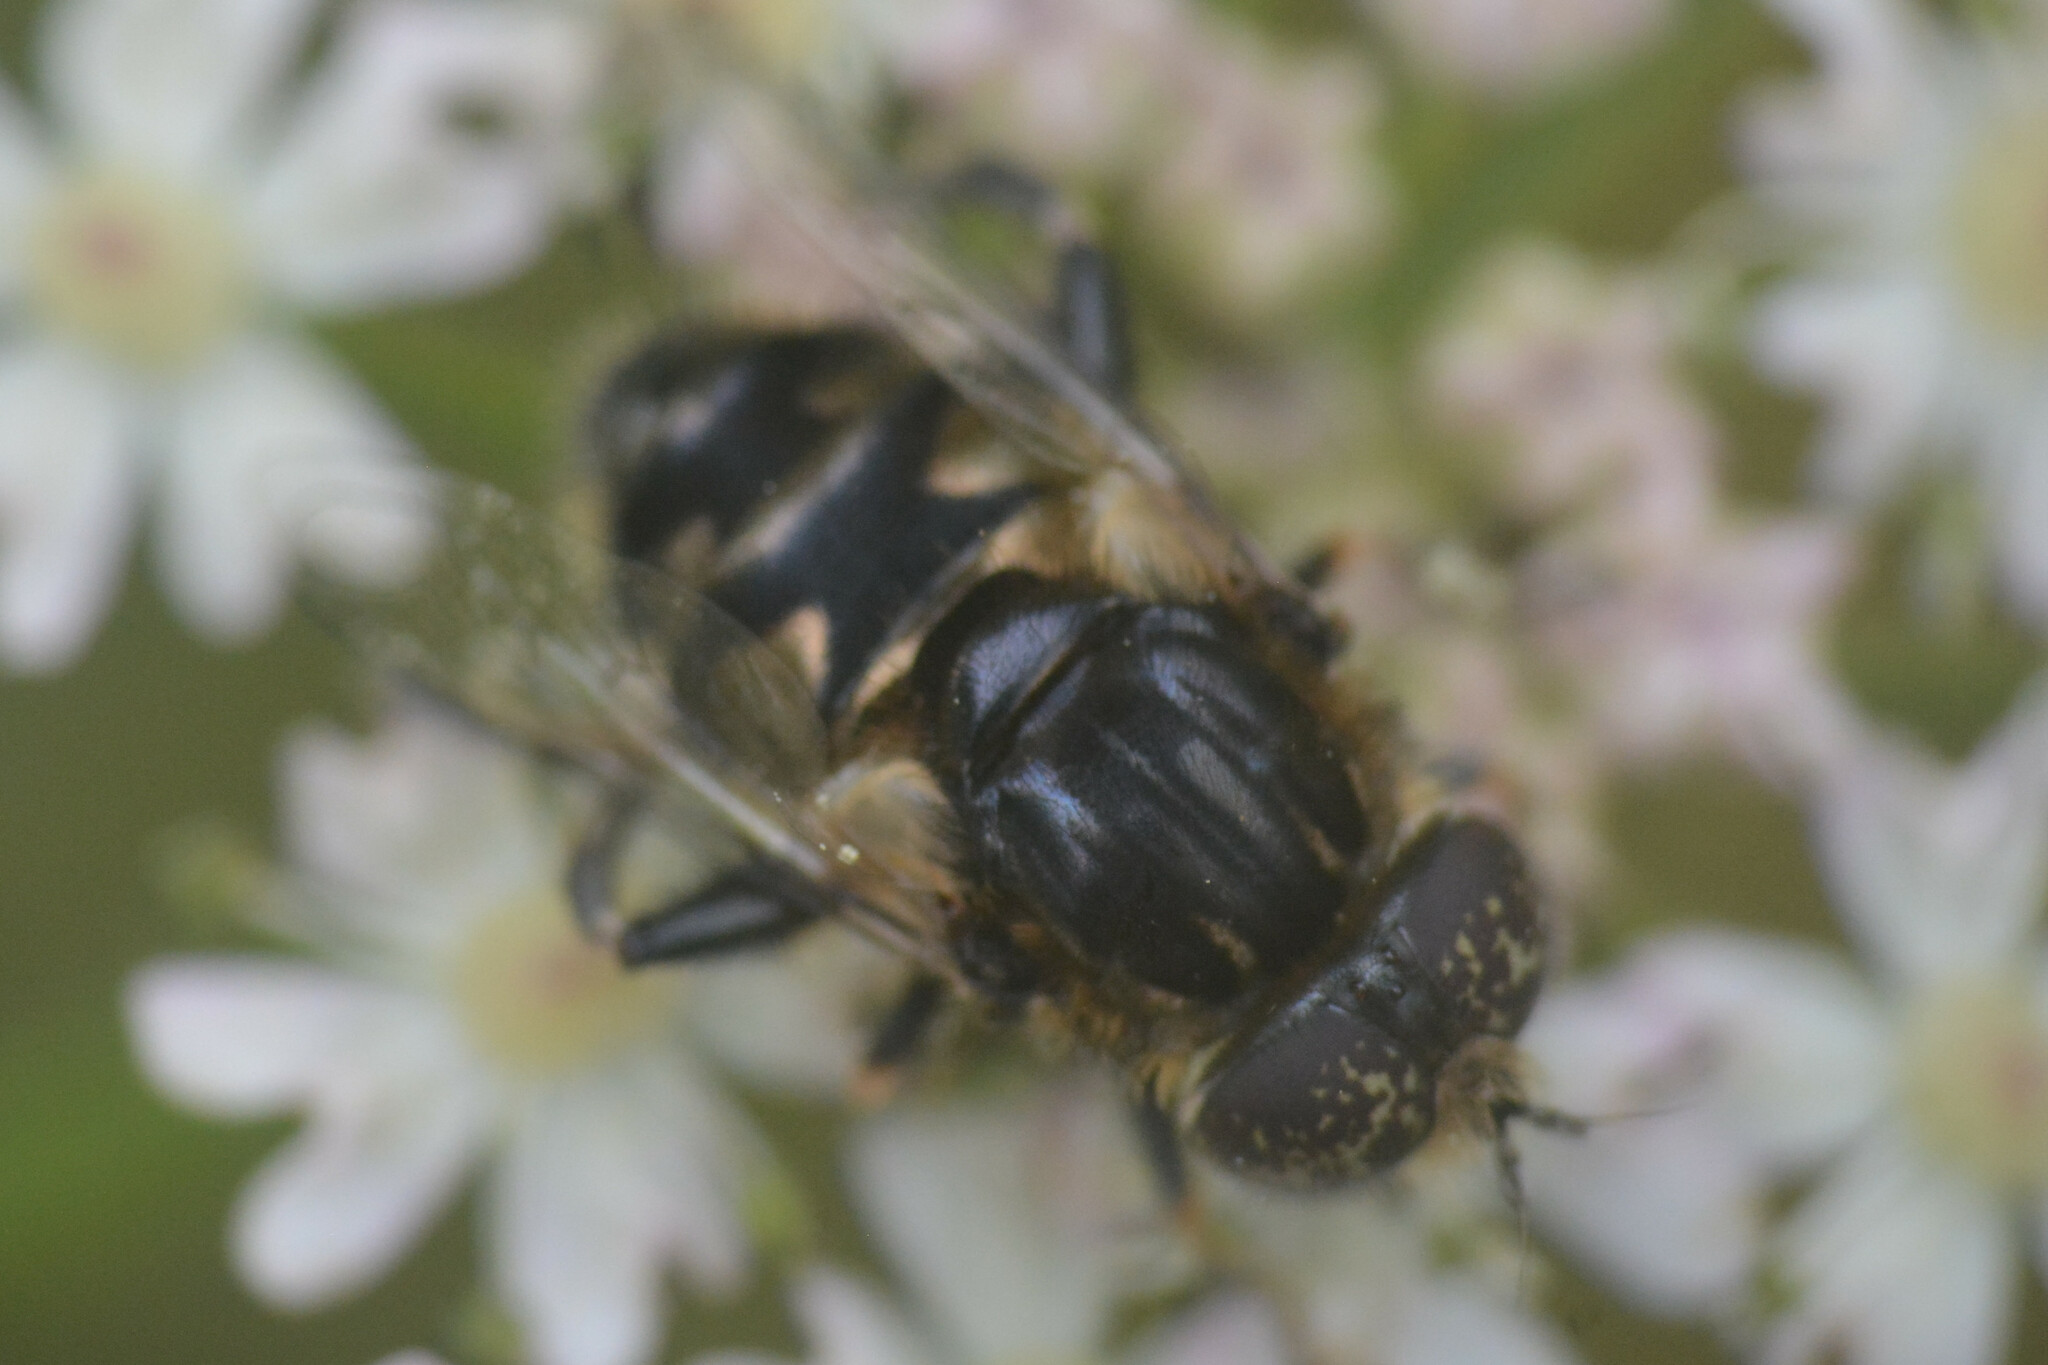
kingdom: Animalia
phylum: Arthropoda
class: Insecta
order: Diptera
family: Syrphidae
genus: Eristalinus
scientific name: Eristalinus sepulchralis
